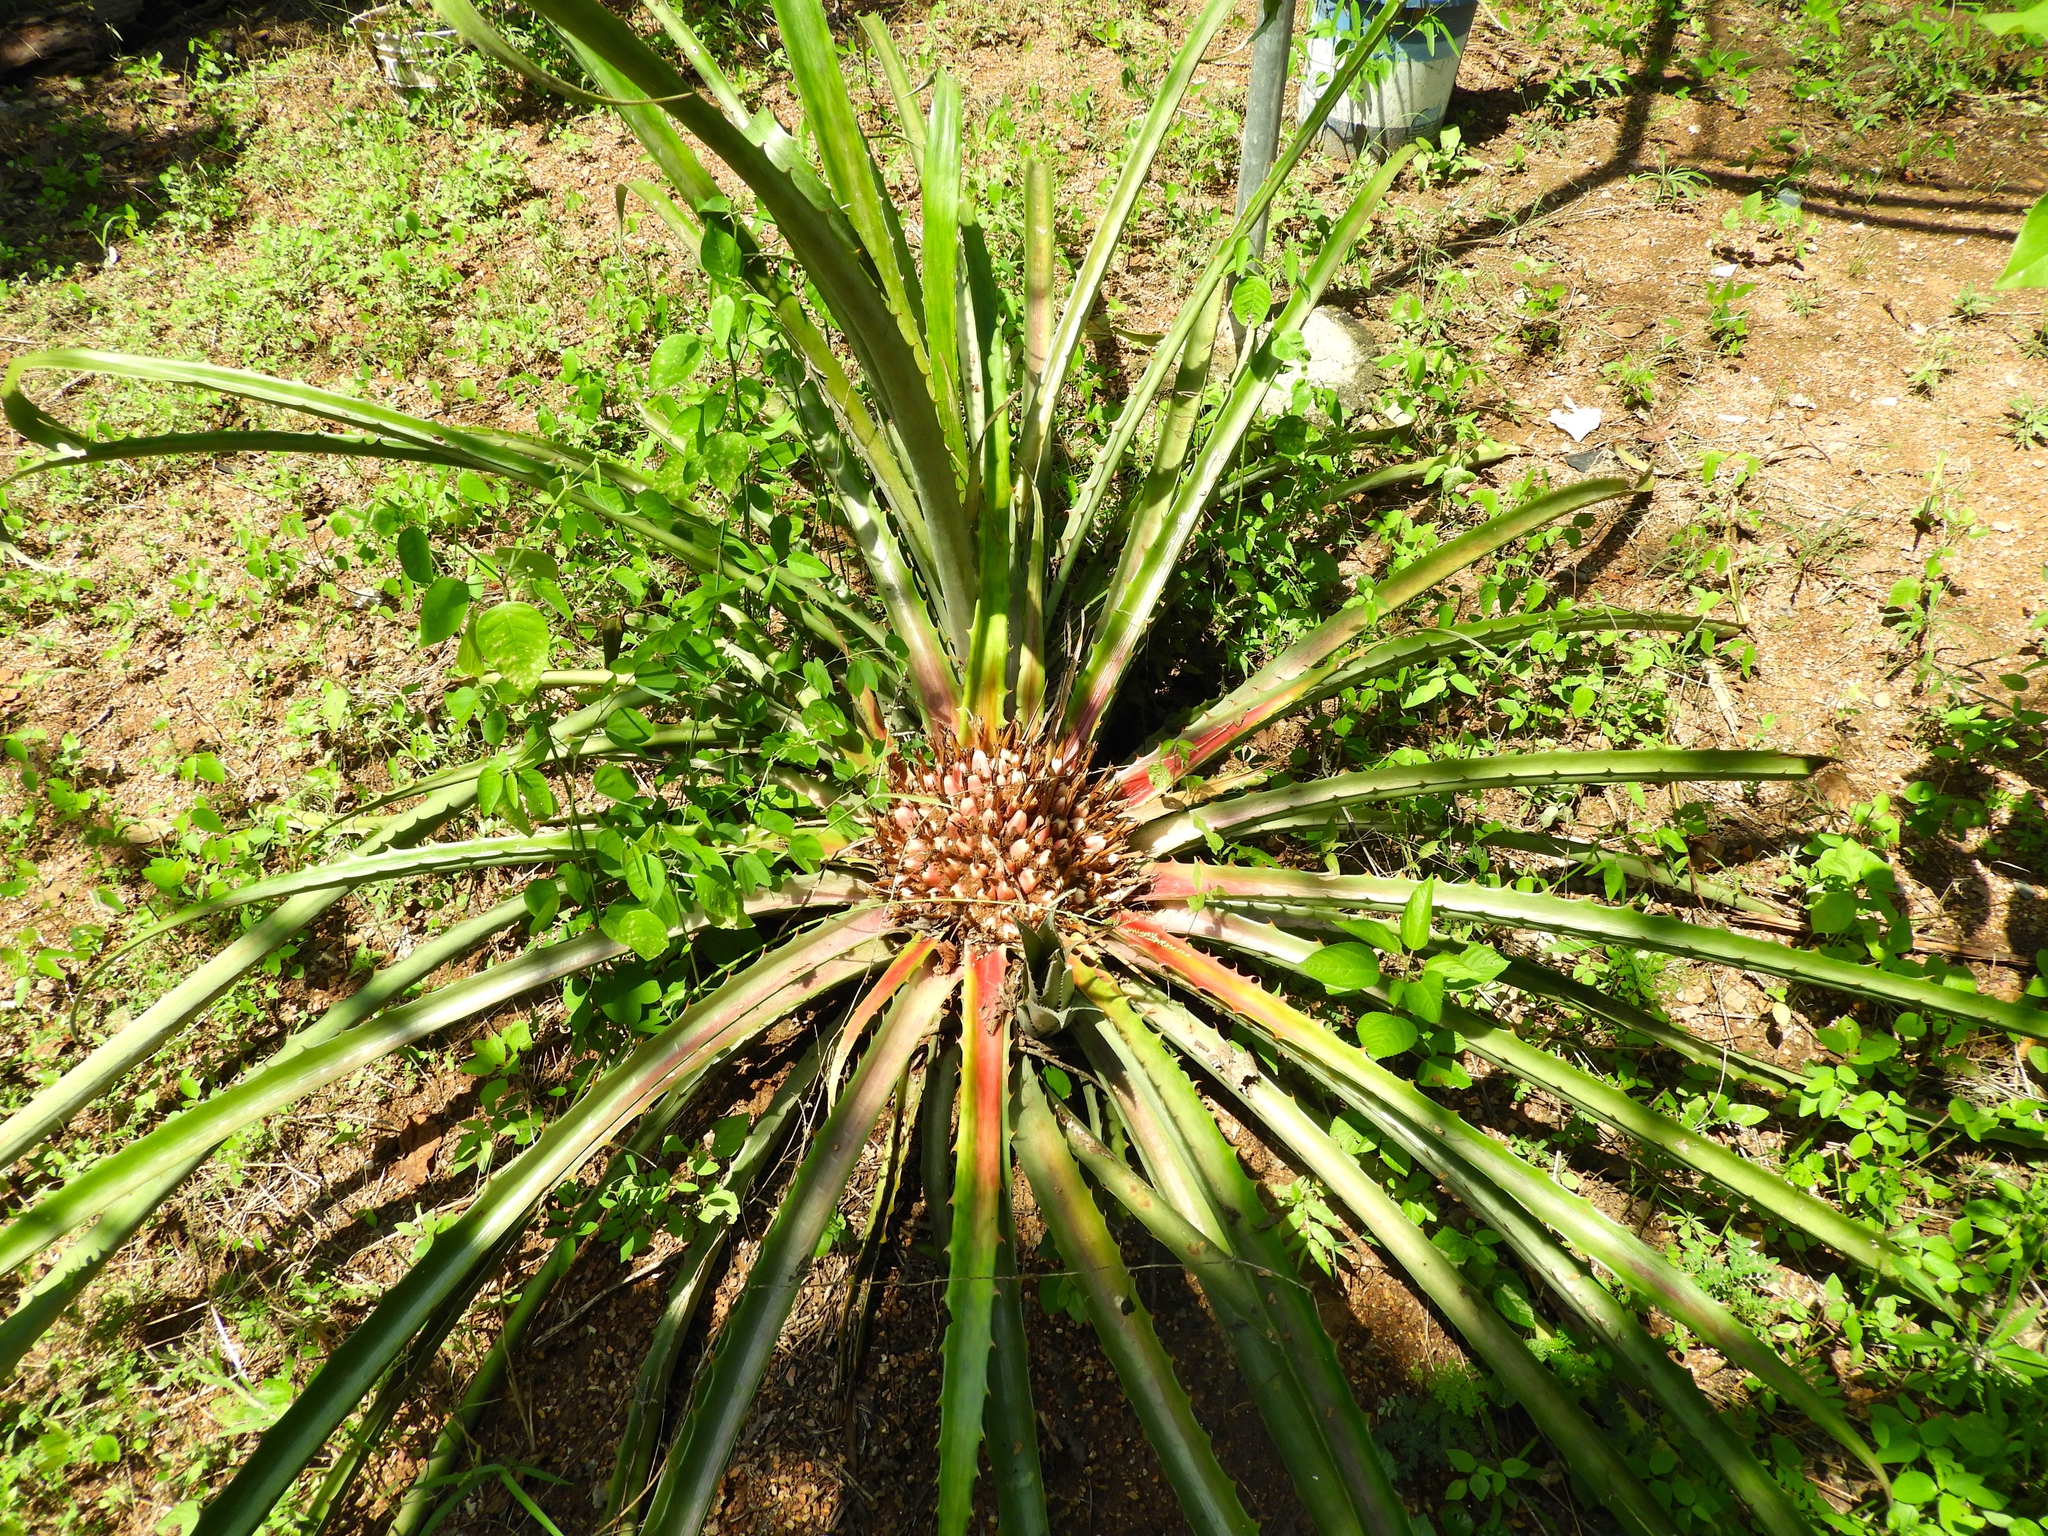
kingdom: Plantae
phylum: Tracheophyta
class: Liliopsida
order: Poales
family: Bromeliaceae
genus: Bromelia
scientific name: Bromelia karatas
